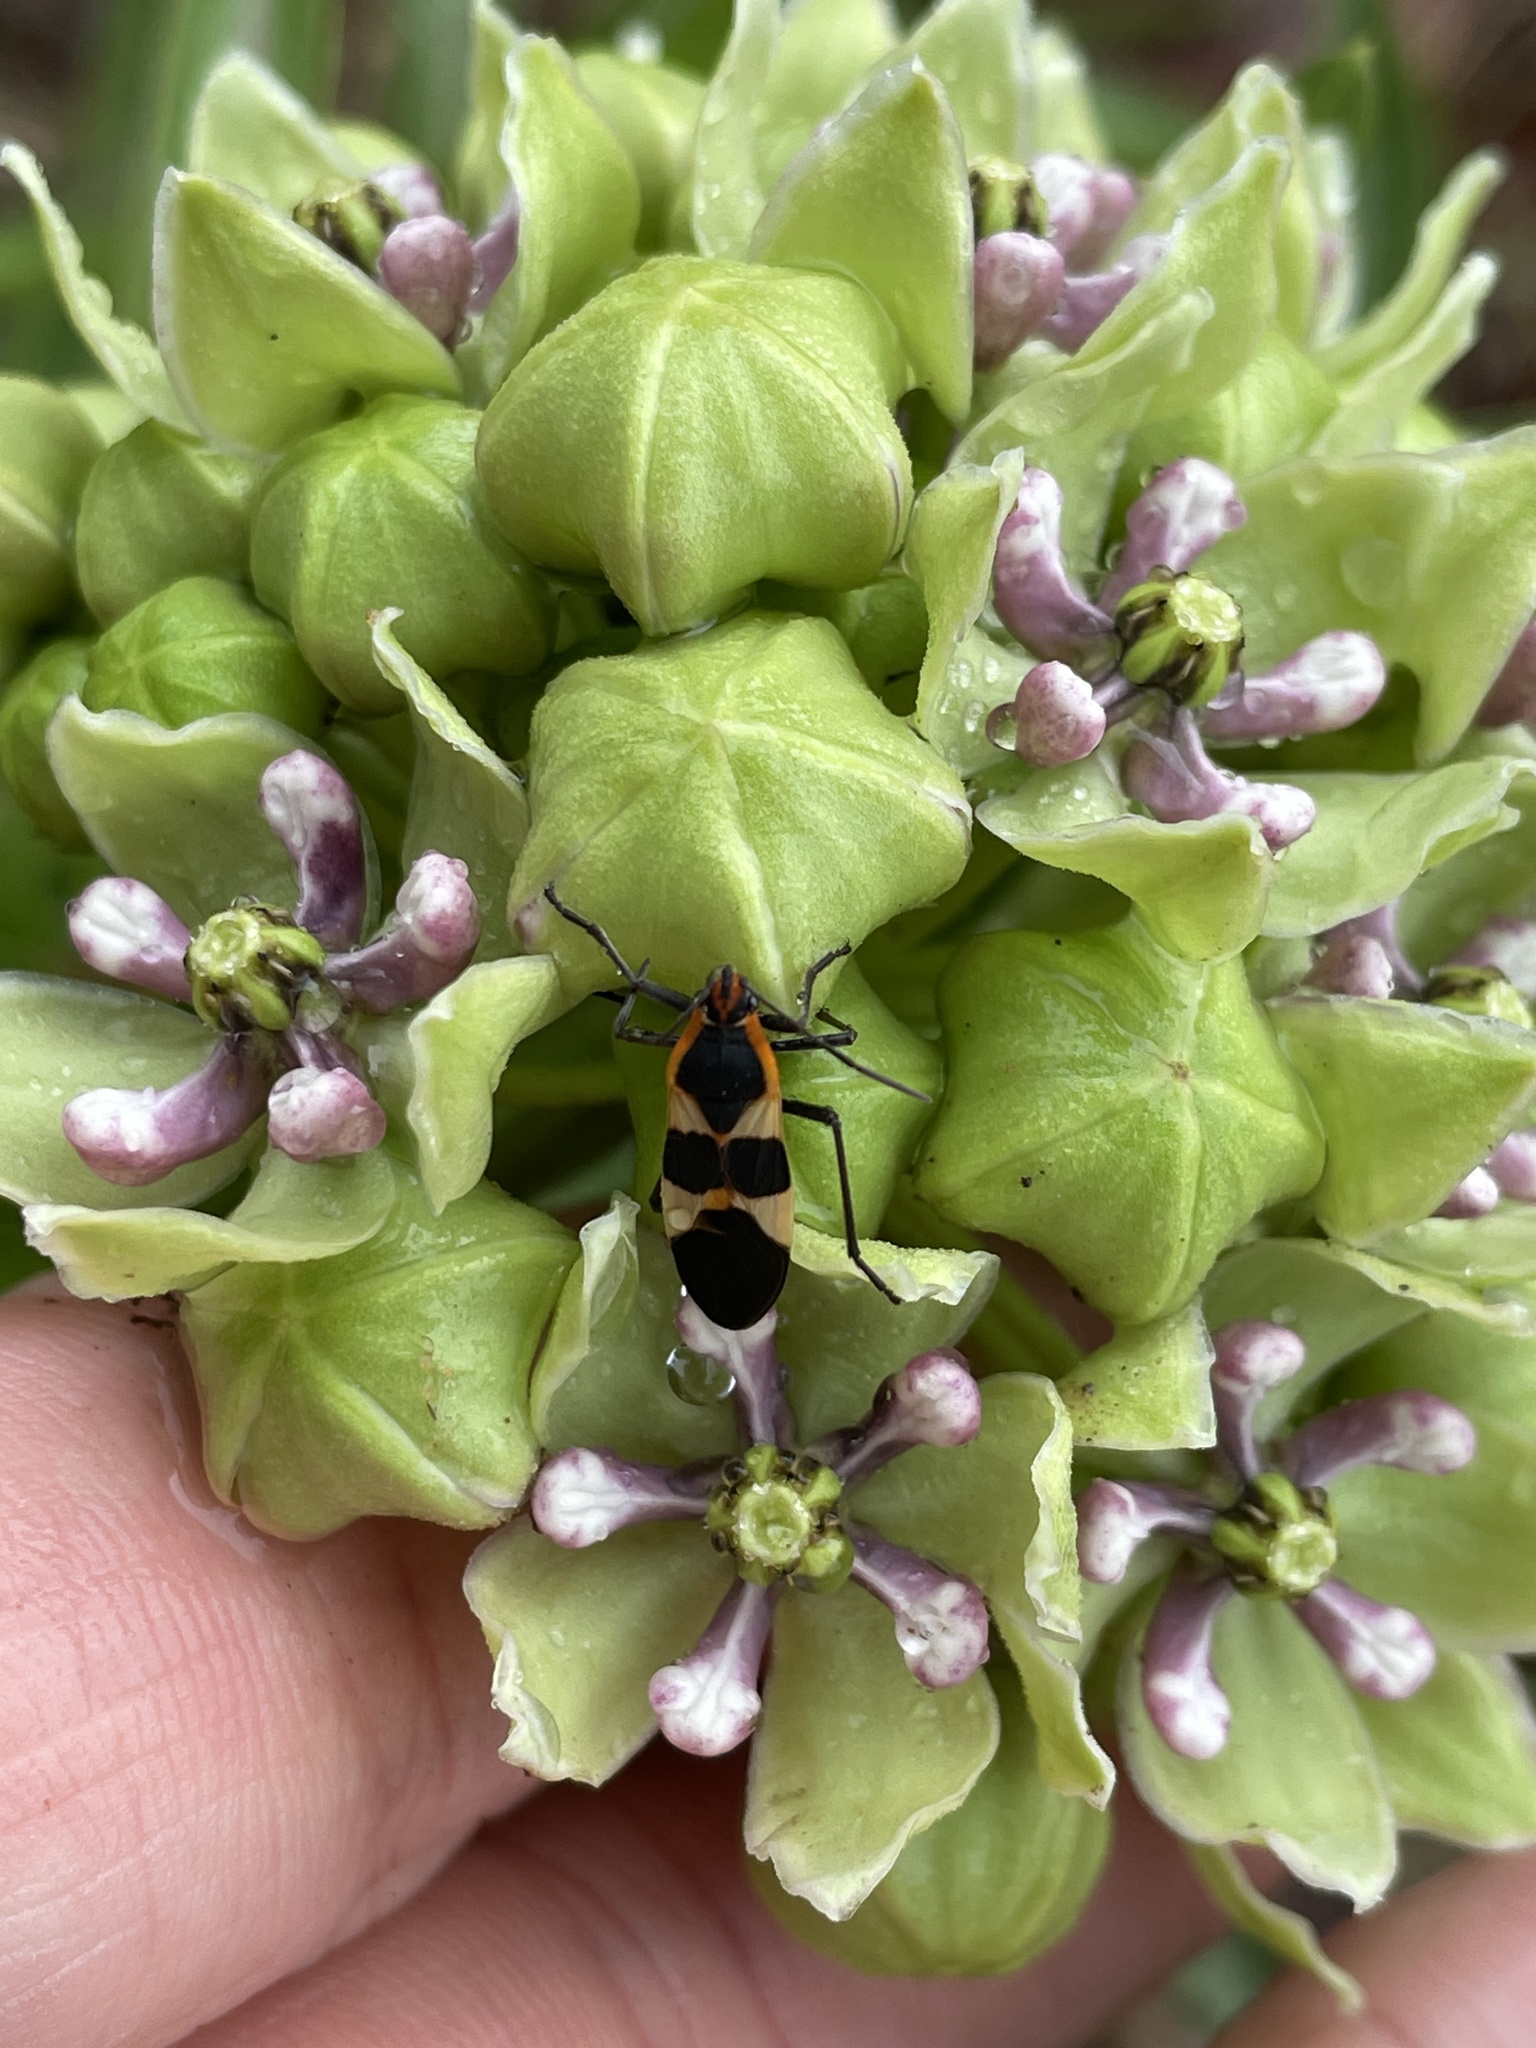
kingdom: Animalia
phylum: Arthropoda
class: Insecta
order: Hemiptera
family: Lygaeidae
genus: Oncopeltus
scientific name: Oncopeltus fasciatus
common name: Large milkweed bug
